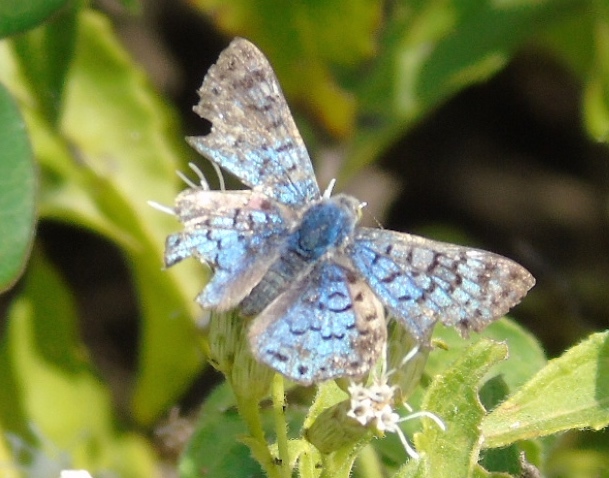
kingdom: Animalia
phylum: Arthropoda
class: Insecta
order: Lepidoptera
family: Riodinidae
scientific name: Riodinidae
